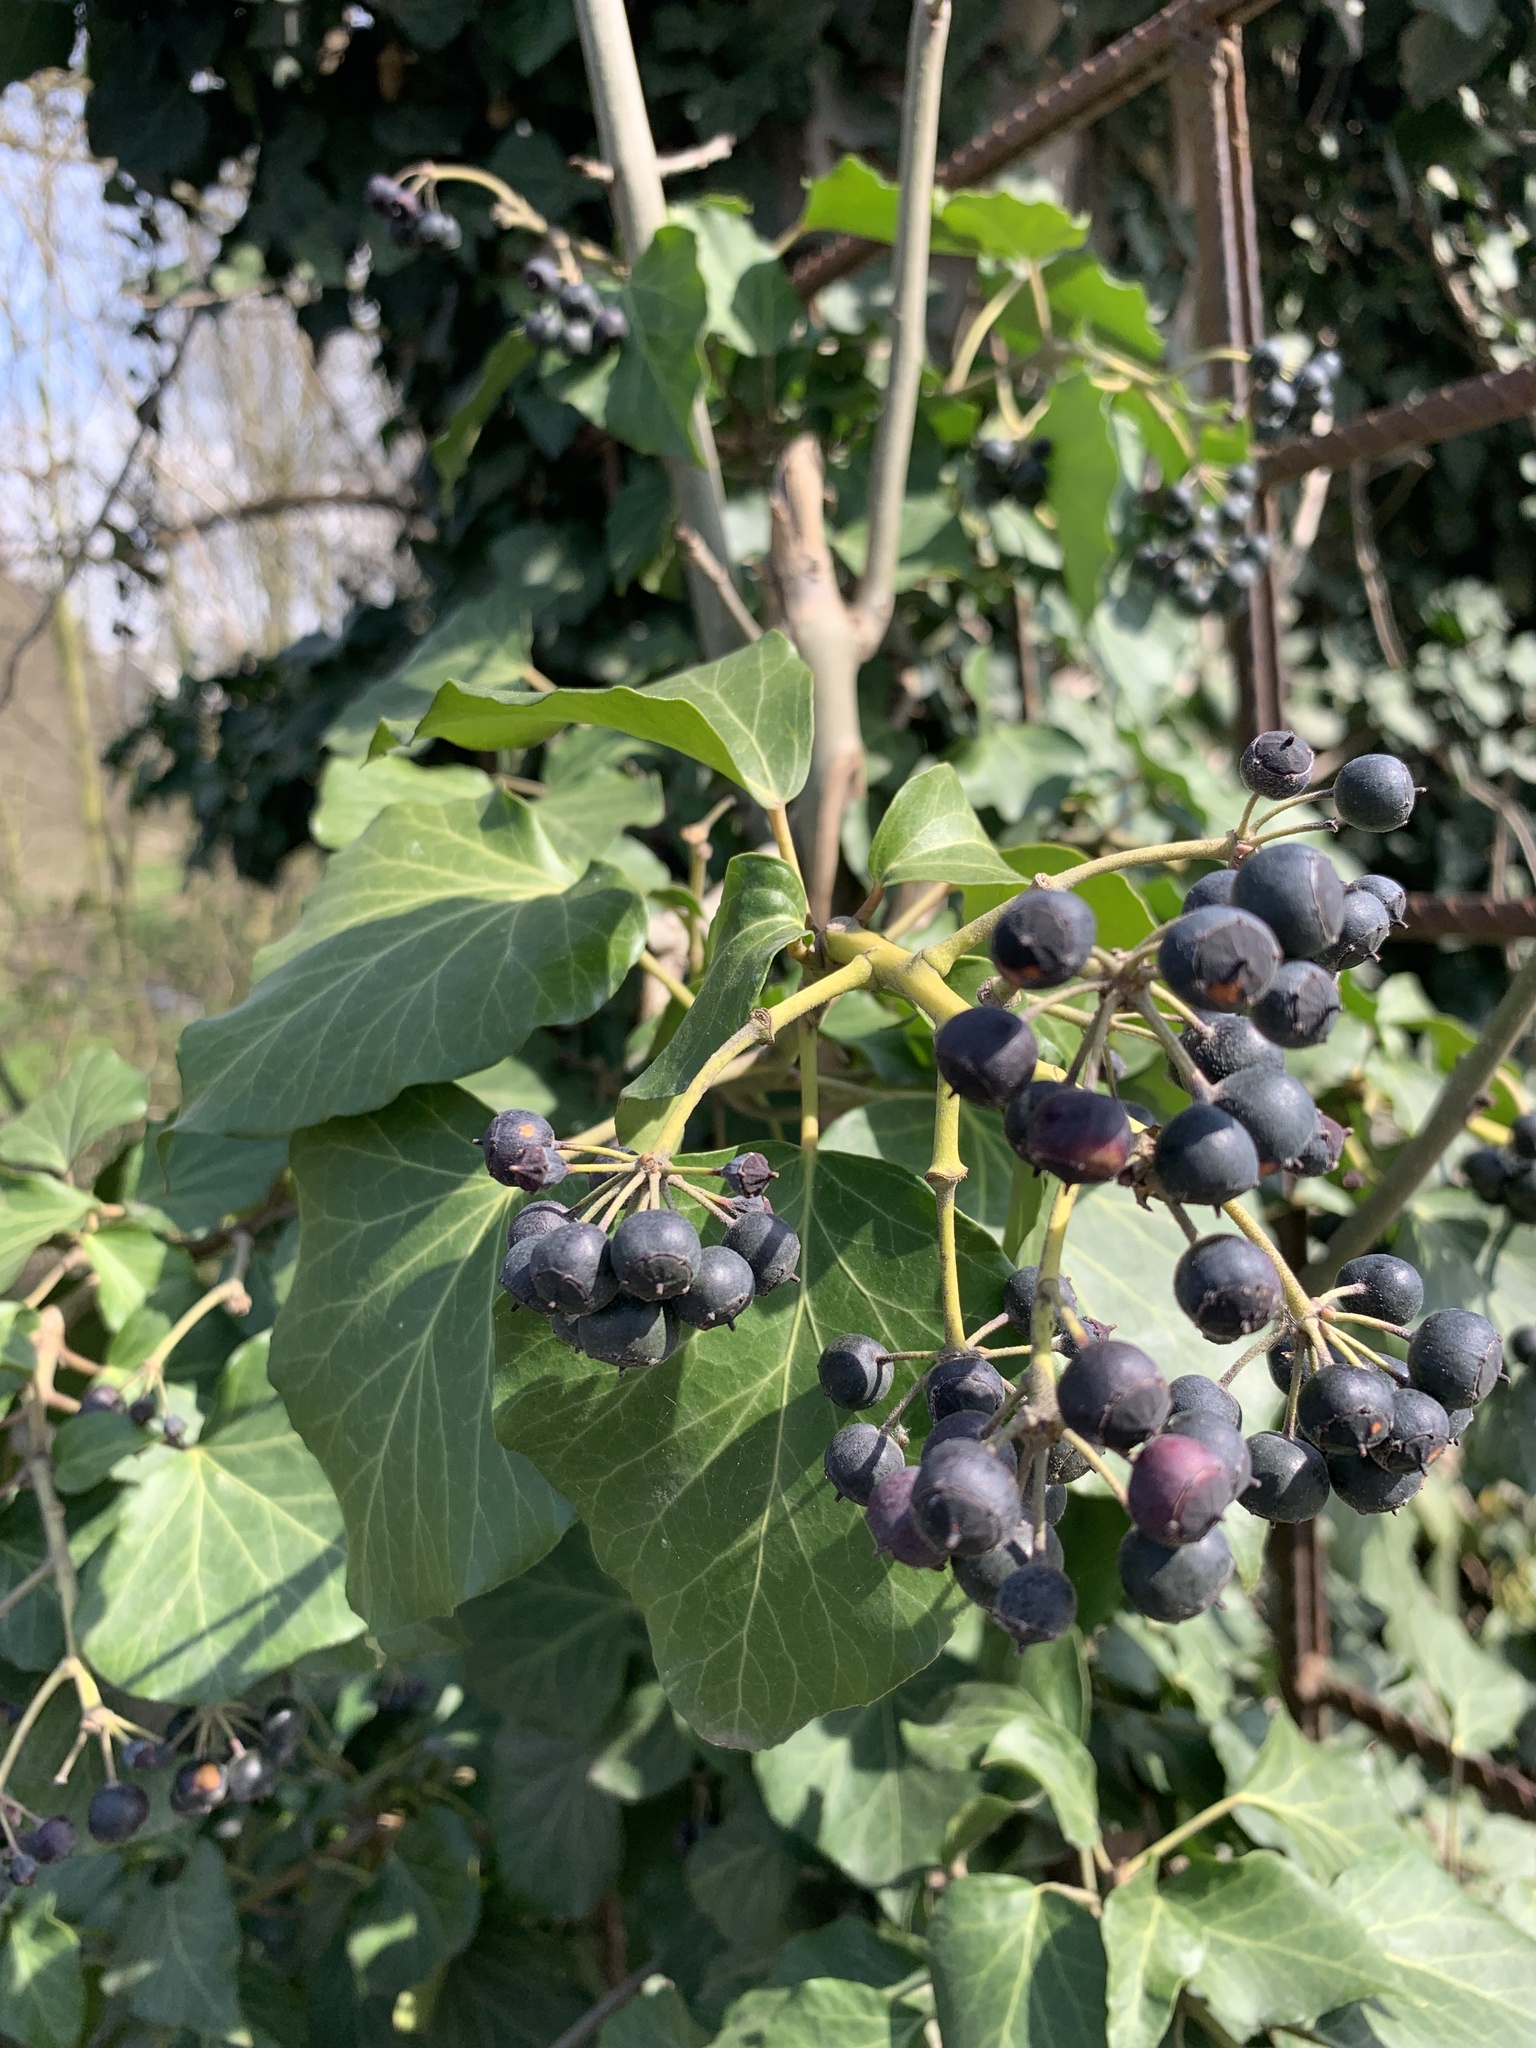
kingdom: Plantae
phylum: Tracheophyta
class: Magnoliopsida
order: Apiales
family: Araliaceae
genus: Hedera
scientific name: Hedera helix
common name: Ivy
